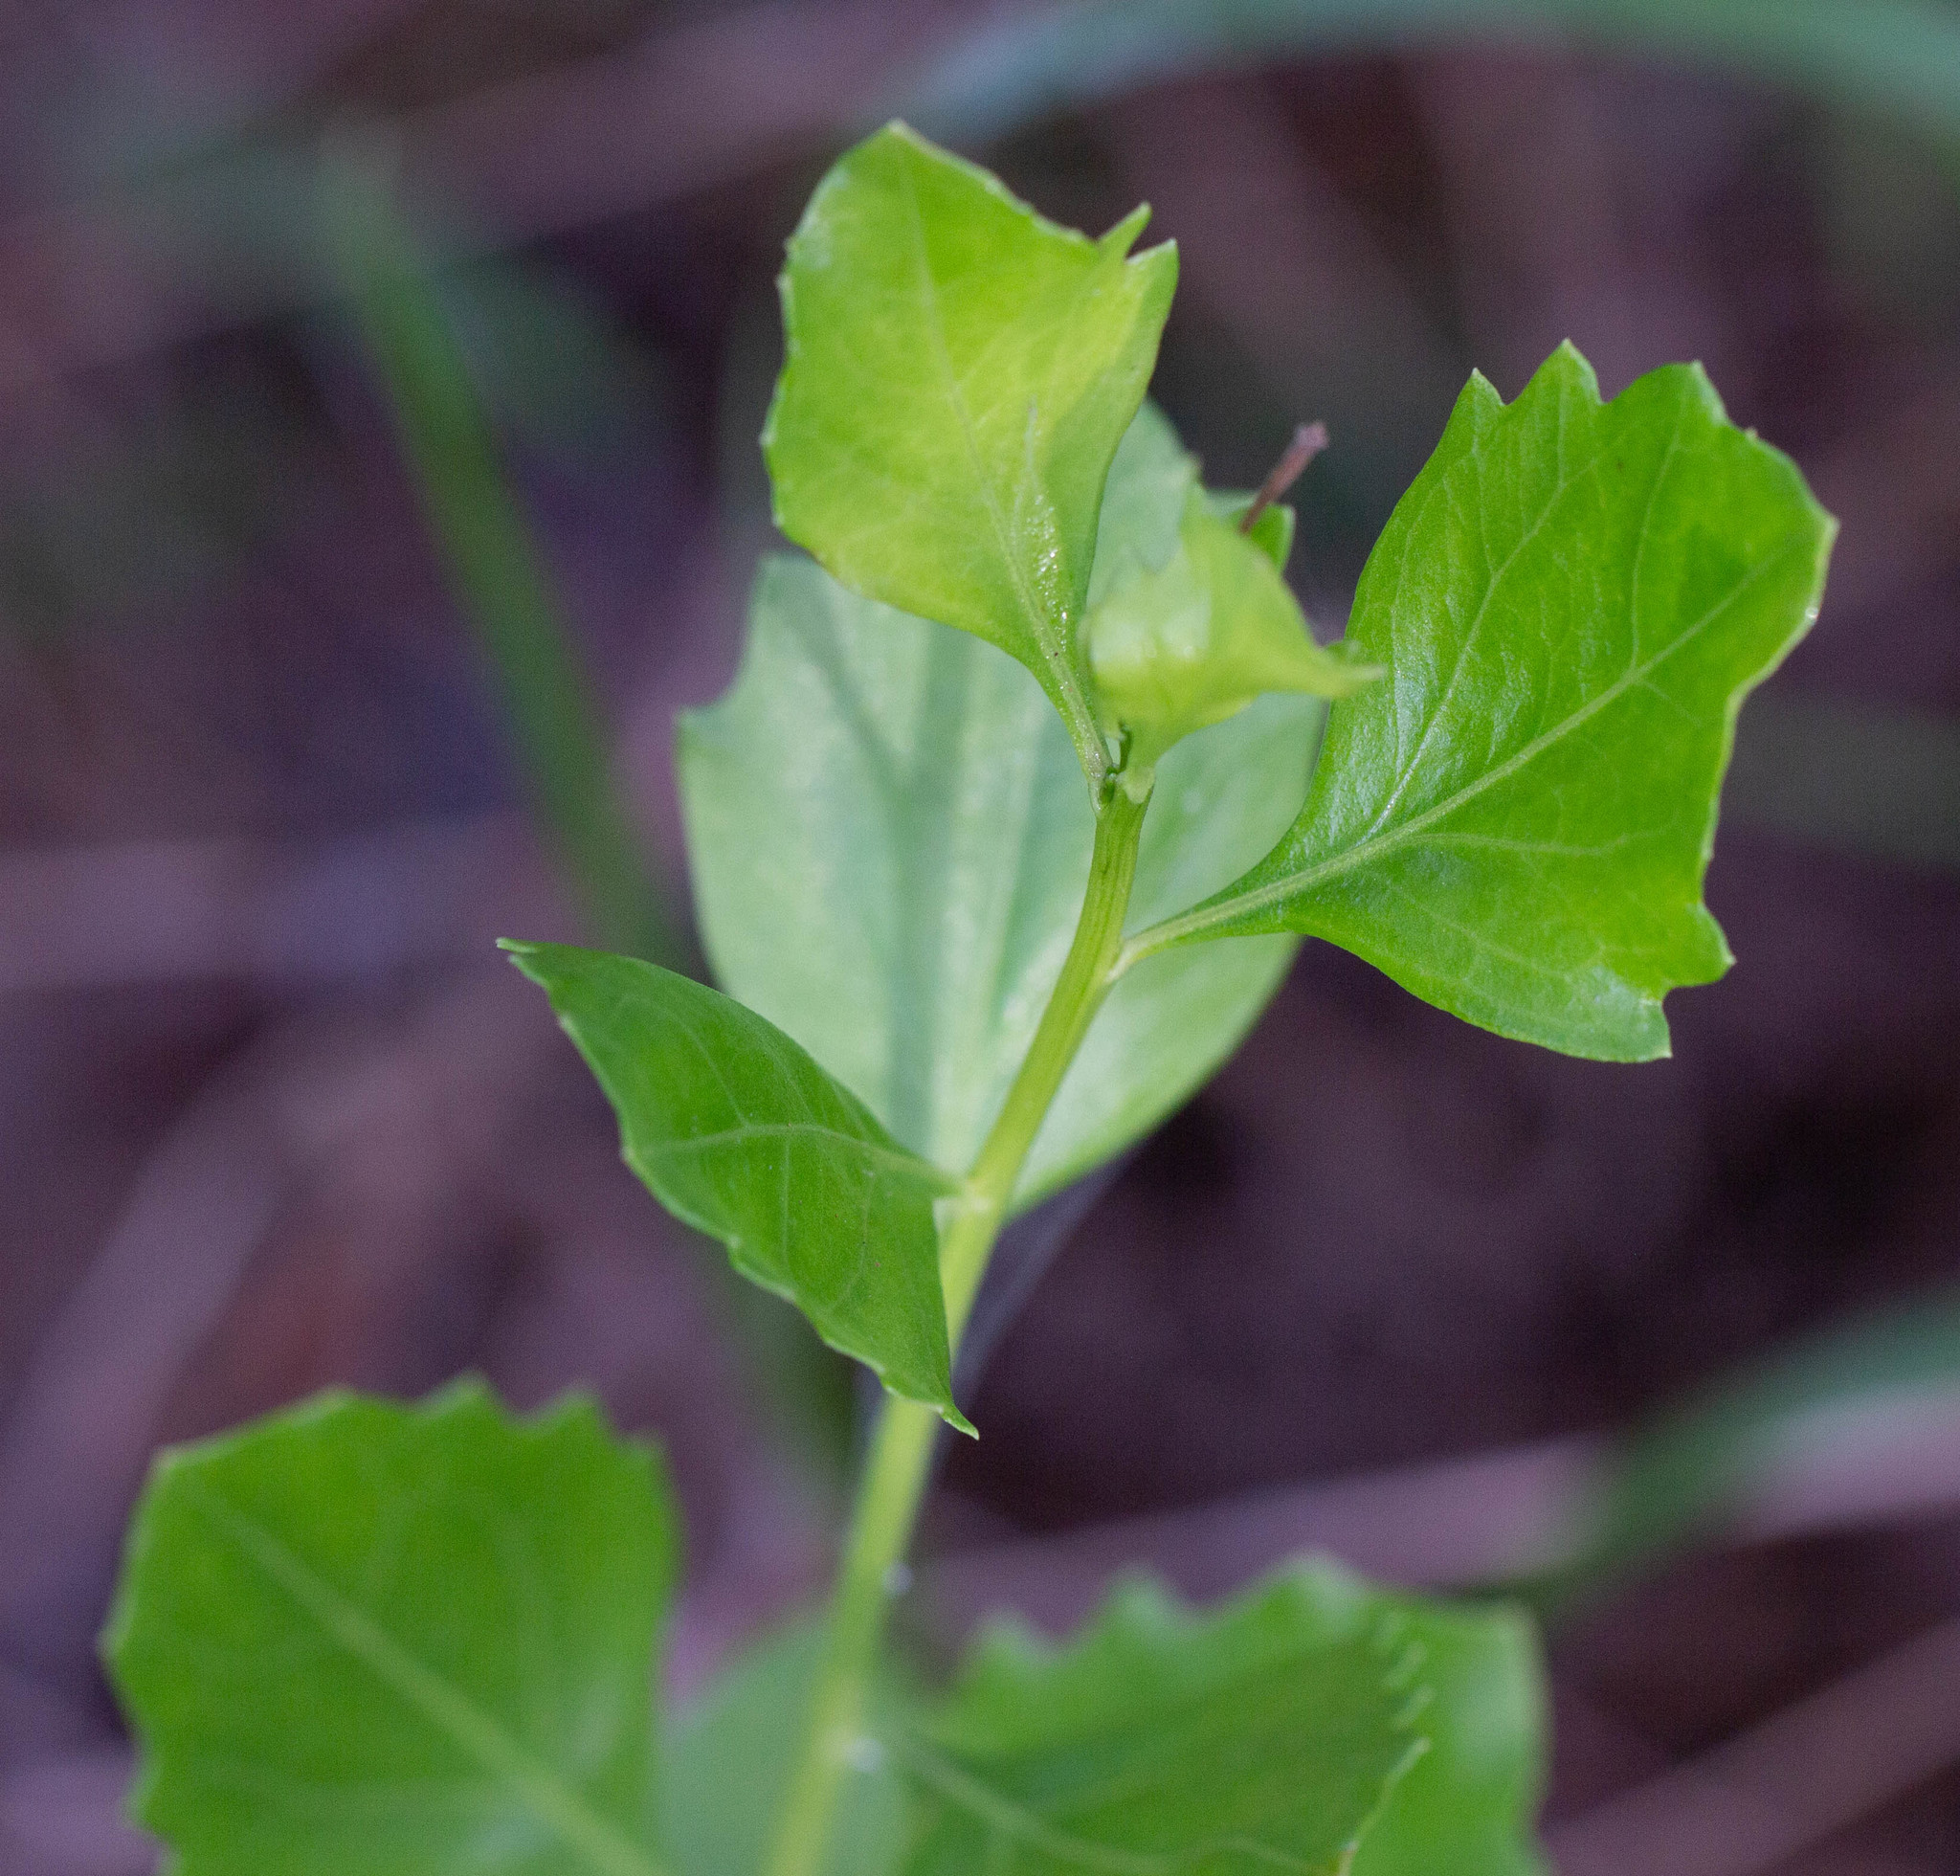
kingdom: Plantae
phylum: Tracheophyta
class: Magnoliopsida
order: Asterales
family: Asteraceae
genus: Baccharis
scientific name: Baccharis halimifolia
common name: Eastern baccharis
